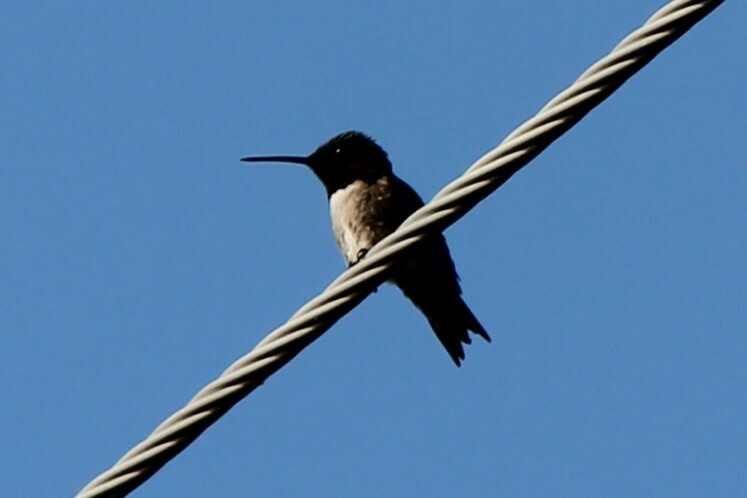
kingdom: Animalia
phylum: Chordata
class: Aves
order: Apodiformes
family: Trochilidae
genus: Archilochus
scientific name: Archilochus colubris
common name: Ruby-throated hummingbird
